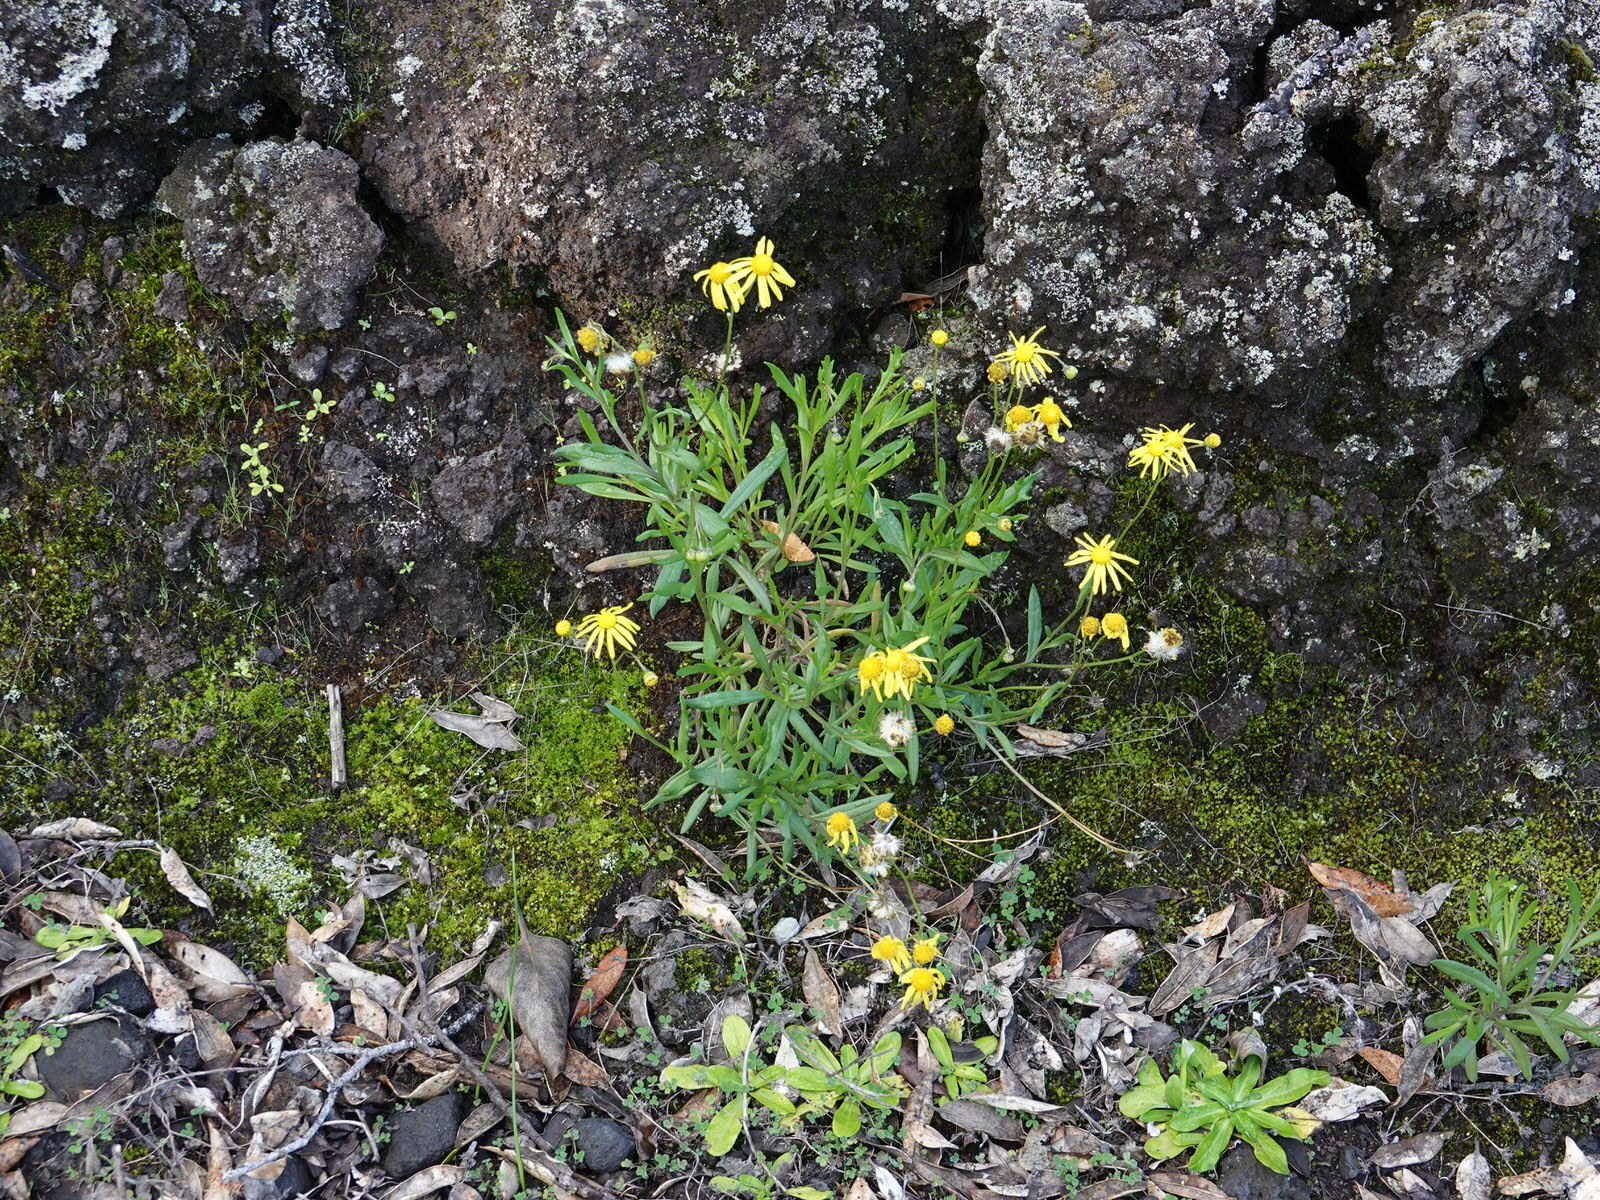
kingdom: Plantae
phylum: Tracheophyta
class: Magnoliopsida
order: Asterales
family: Asteraceae
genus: Senecio
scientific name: Senecio skirrhodon
